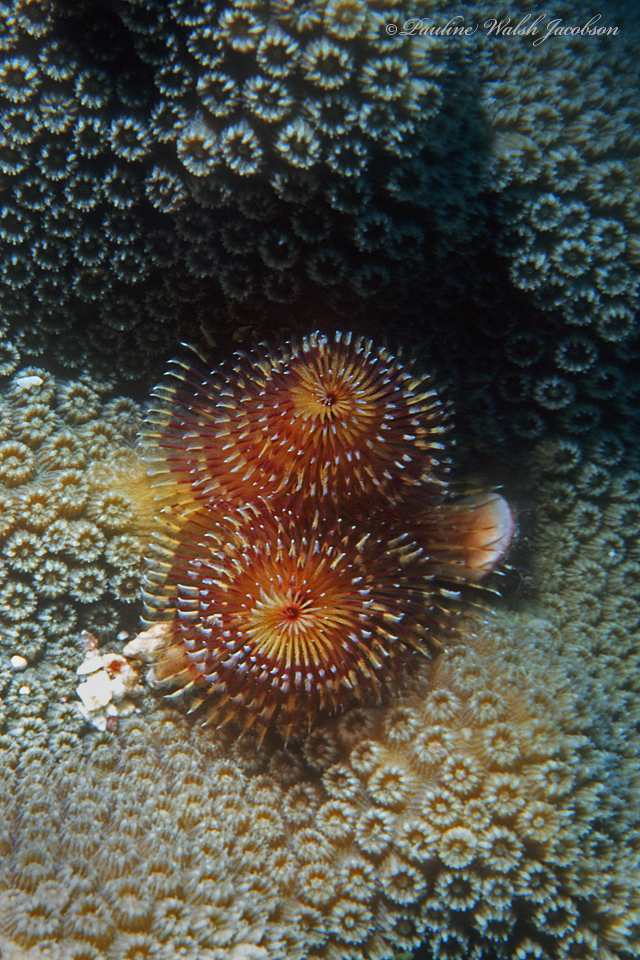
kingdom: Animalia
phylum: Annelida
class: Polychaeta
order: Sabellida
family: Serpulidae
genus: Spirobranchus
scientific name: Spirobranchus giganteus
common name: Christmas tree worm
